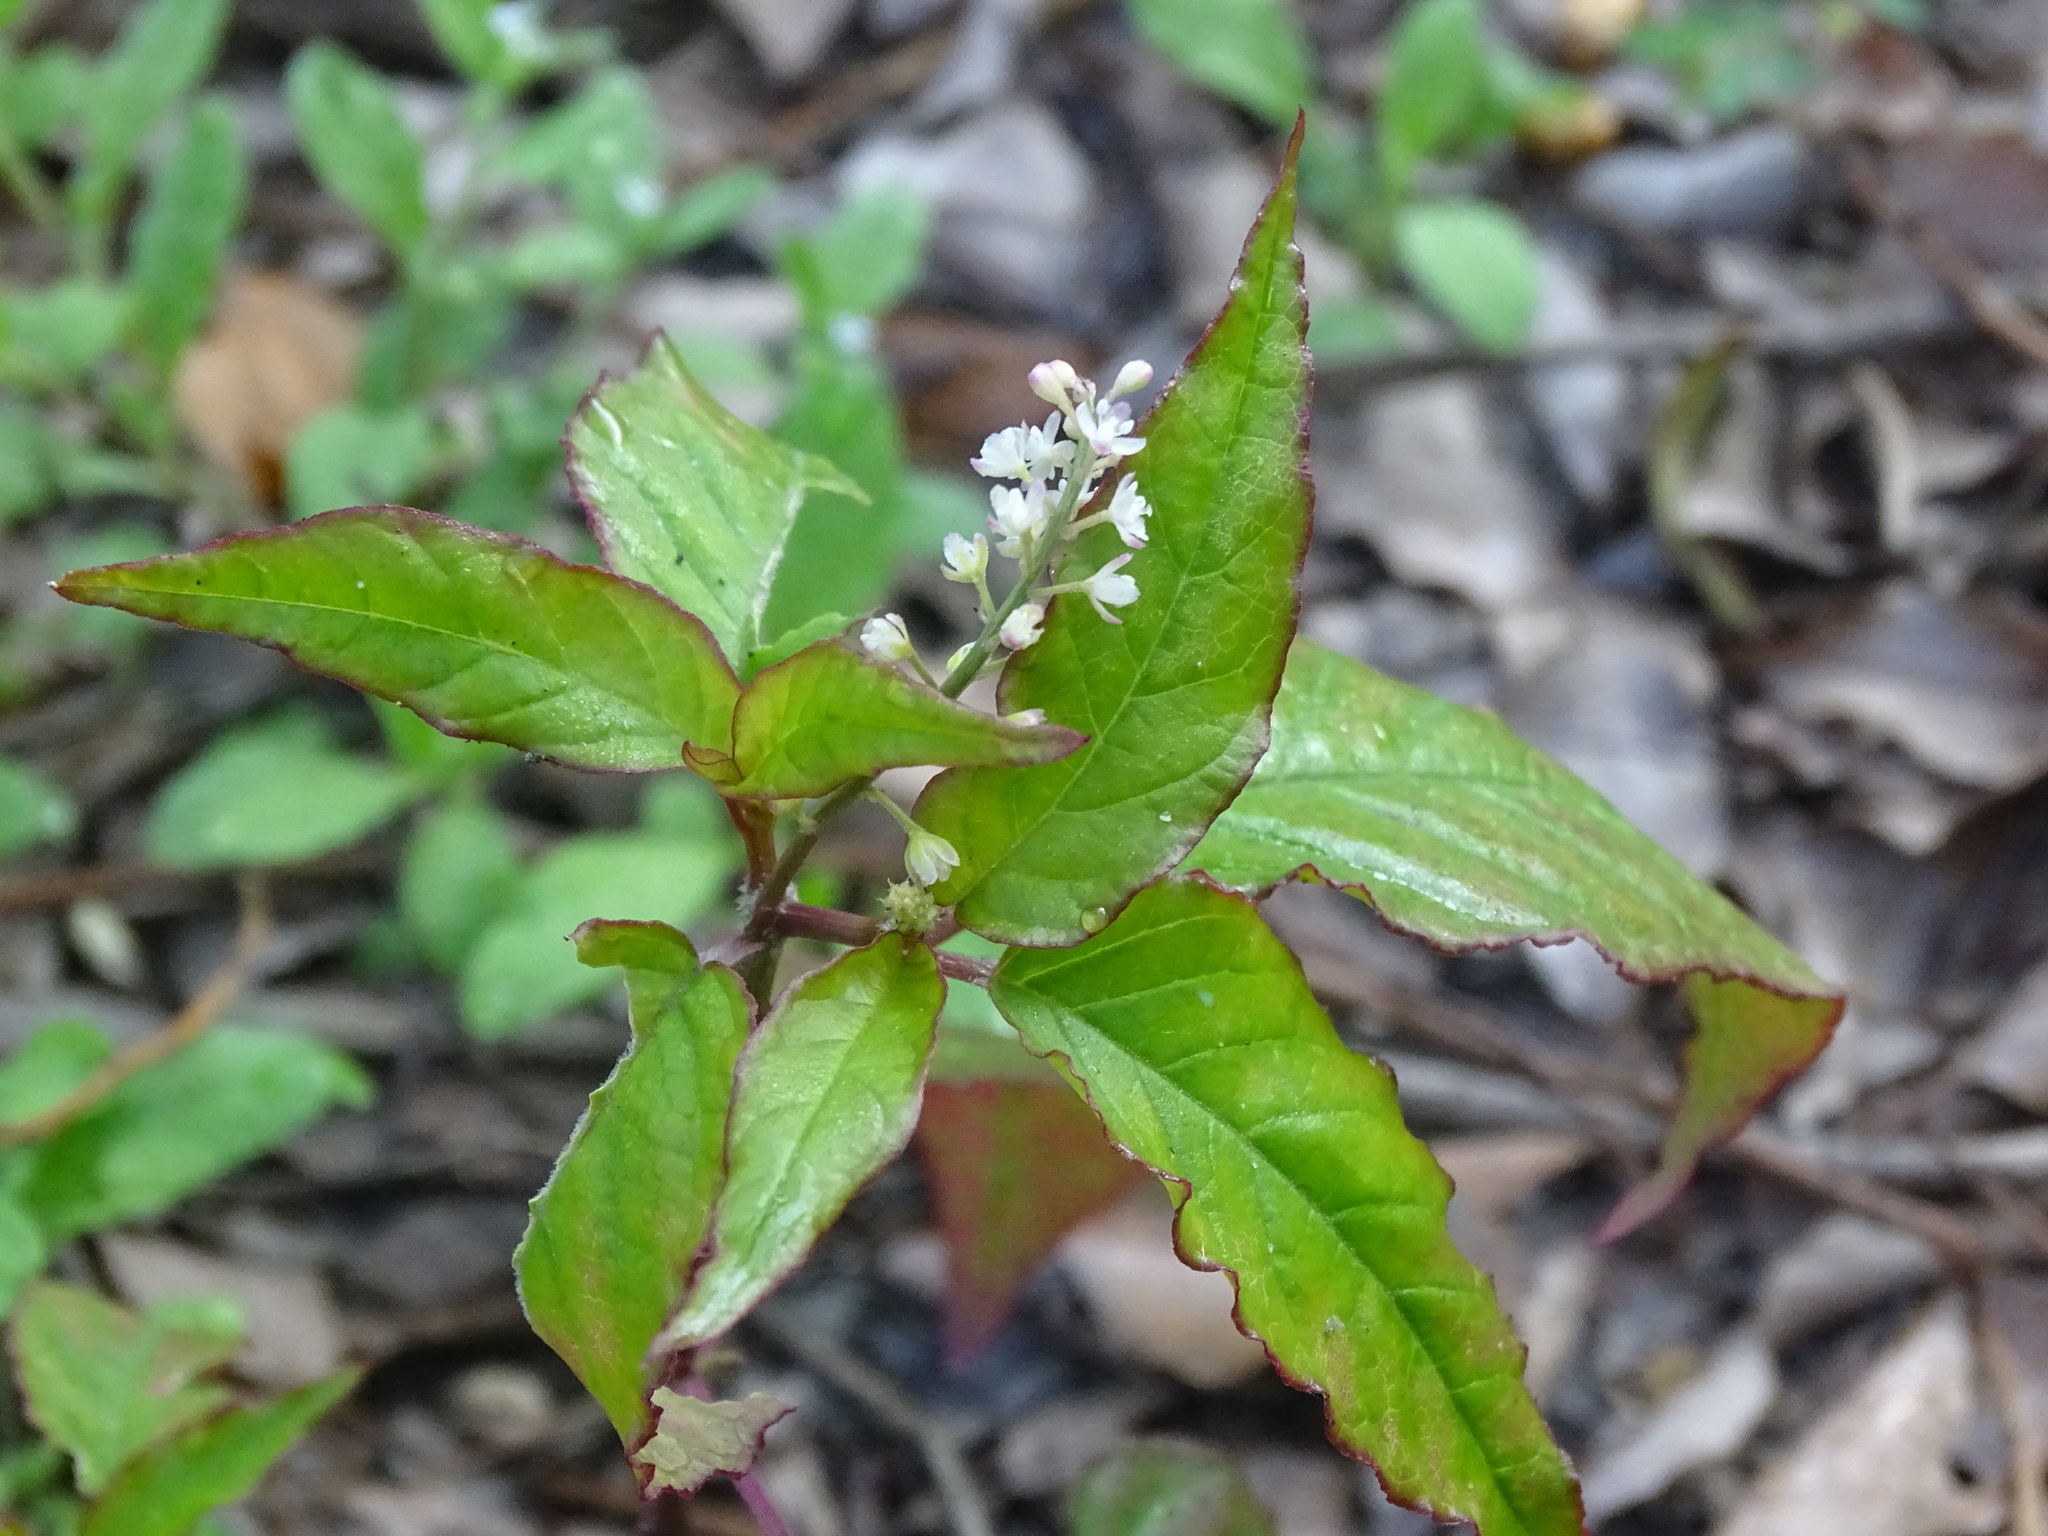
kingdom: Plantae
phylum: Tracheophyta
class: Magnoliopsida
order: Caryophyllales
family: Phytolaccaceae
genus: Rivina
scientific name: Rivina humilis
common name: Rougeplant
